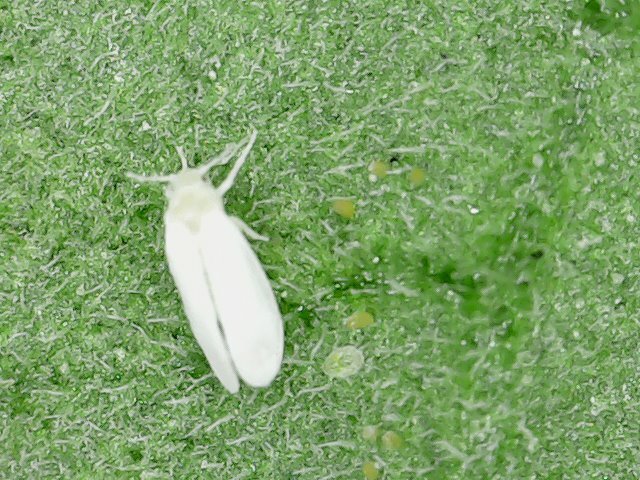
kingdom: Animalia
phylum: Arthropoda
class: Insecta
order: Hemiptera
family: Aleyrodidae
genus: Bemisia
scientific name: Bemisia tabaci
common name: Sweetpotato whitefly
